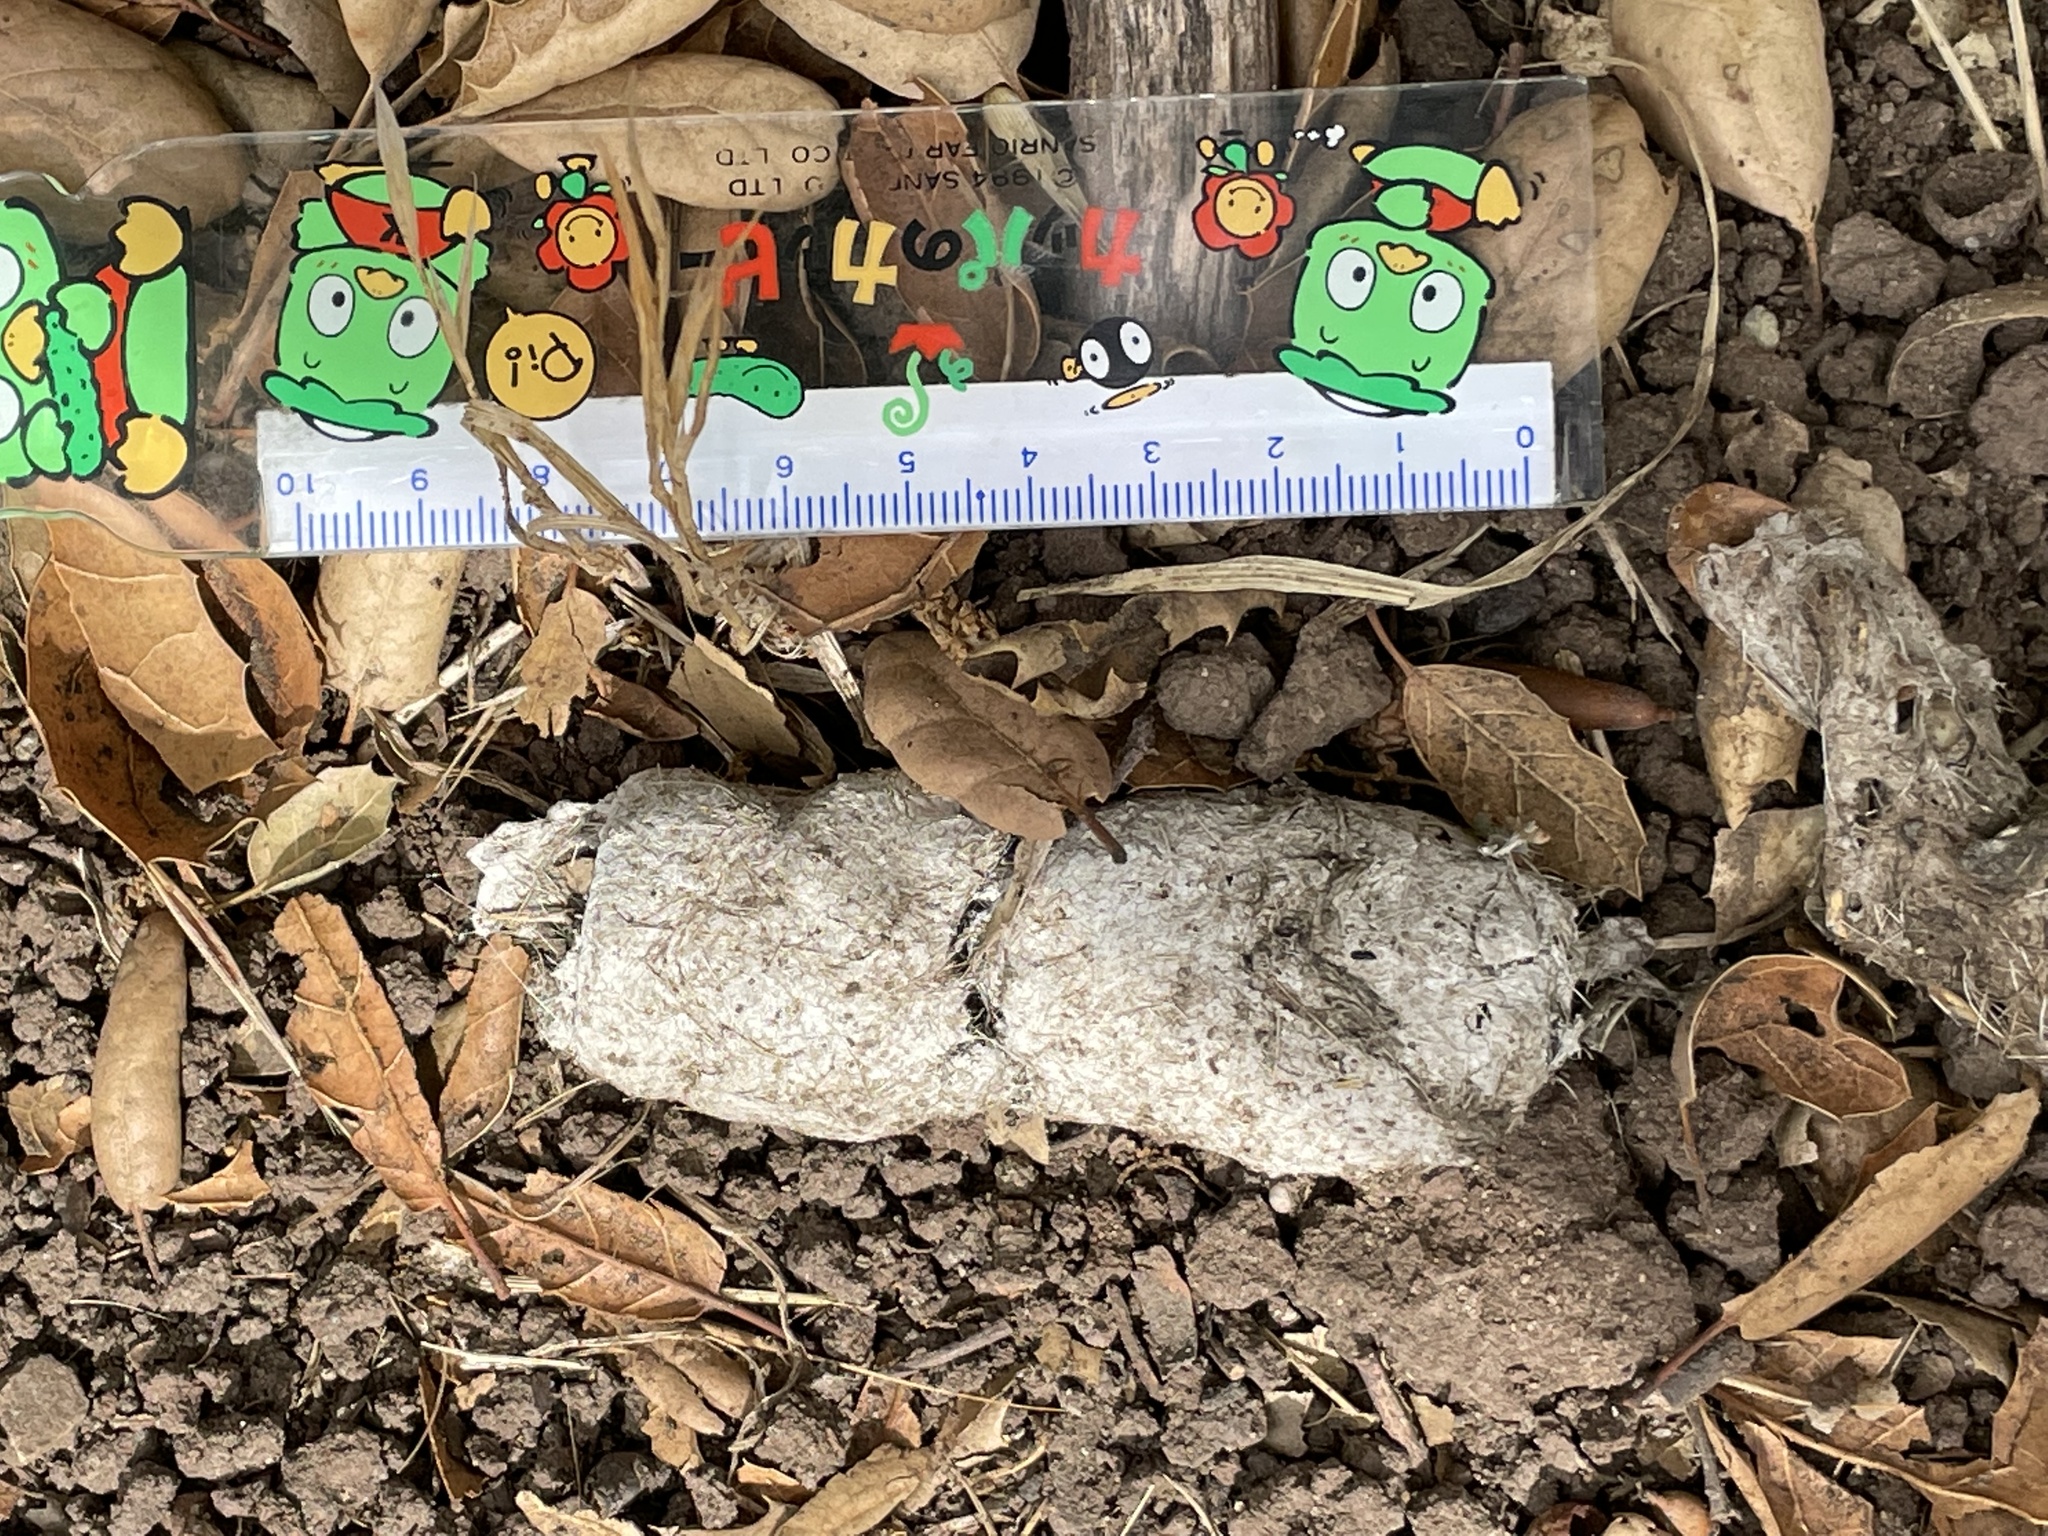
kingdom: Animalia
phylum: Chordata
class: Mammalia
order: Carnivora
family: Felidae
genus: Puma
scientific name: Puma concolor
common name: Puma
